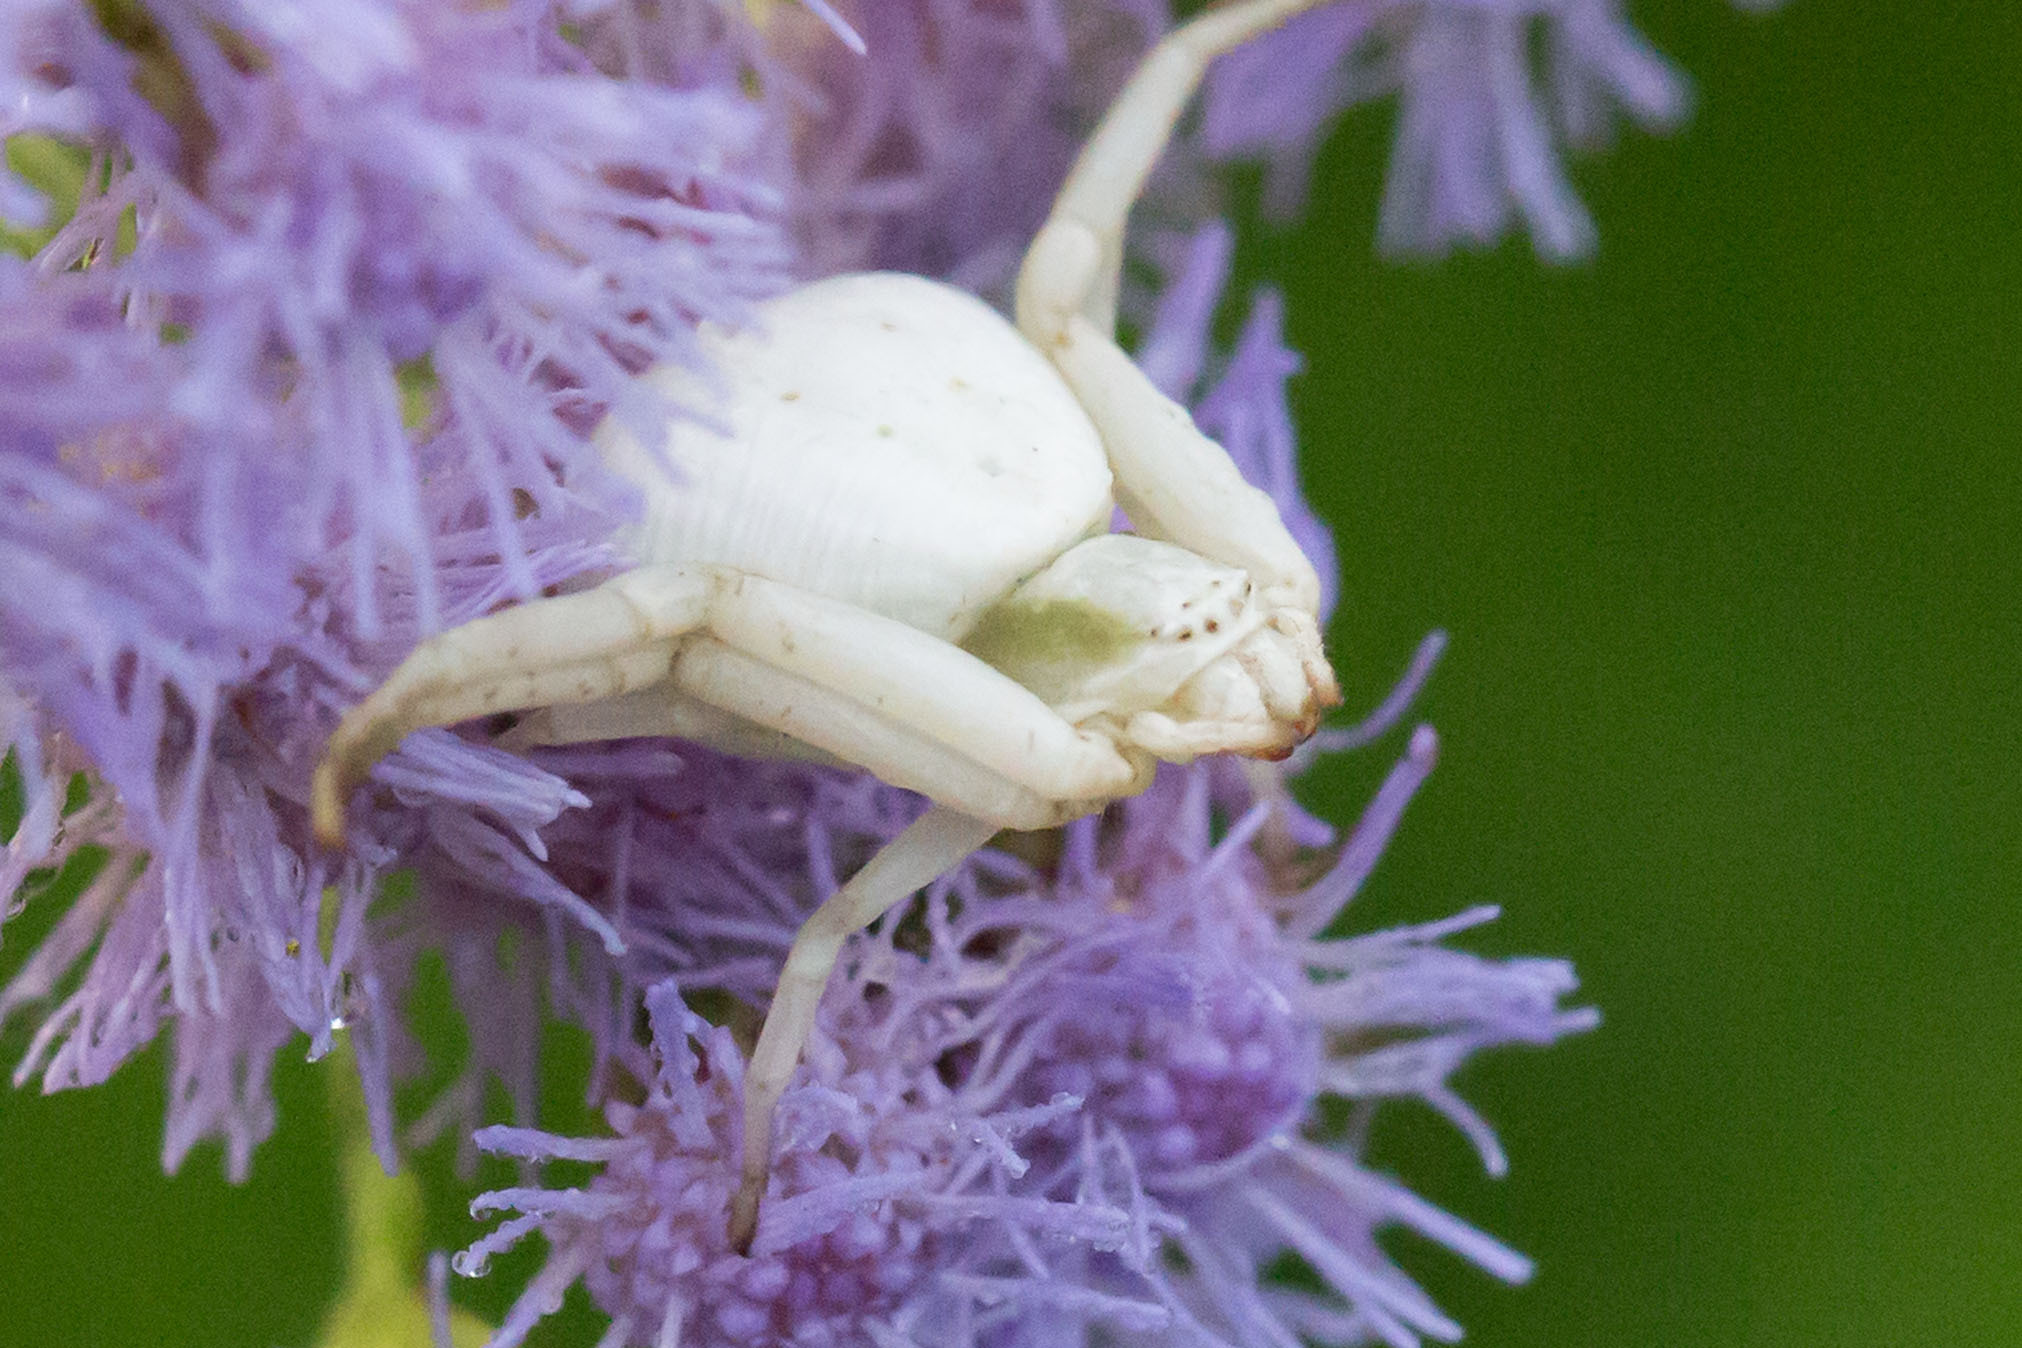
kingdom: Animalia
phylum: Arthropoda
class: Arachnida
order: Araneae
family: Thomisidae
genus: Misumenoides
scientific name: Misumenoides formosipes
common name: White-banded crab spider
